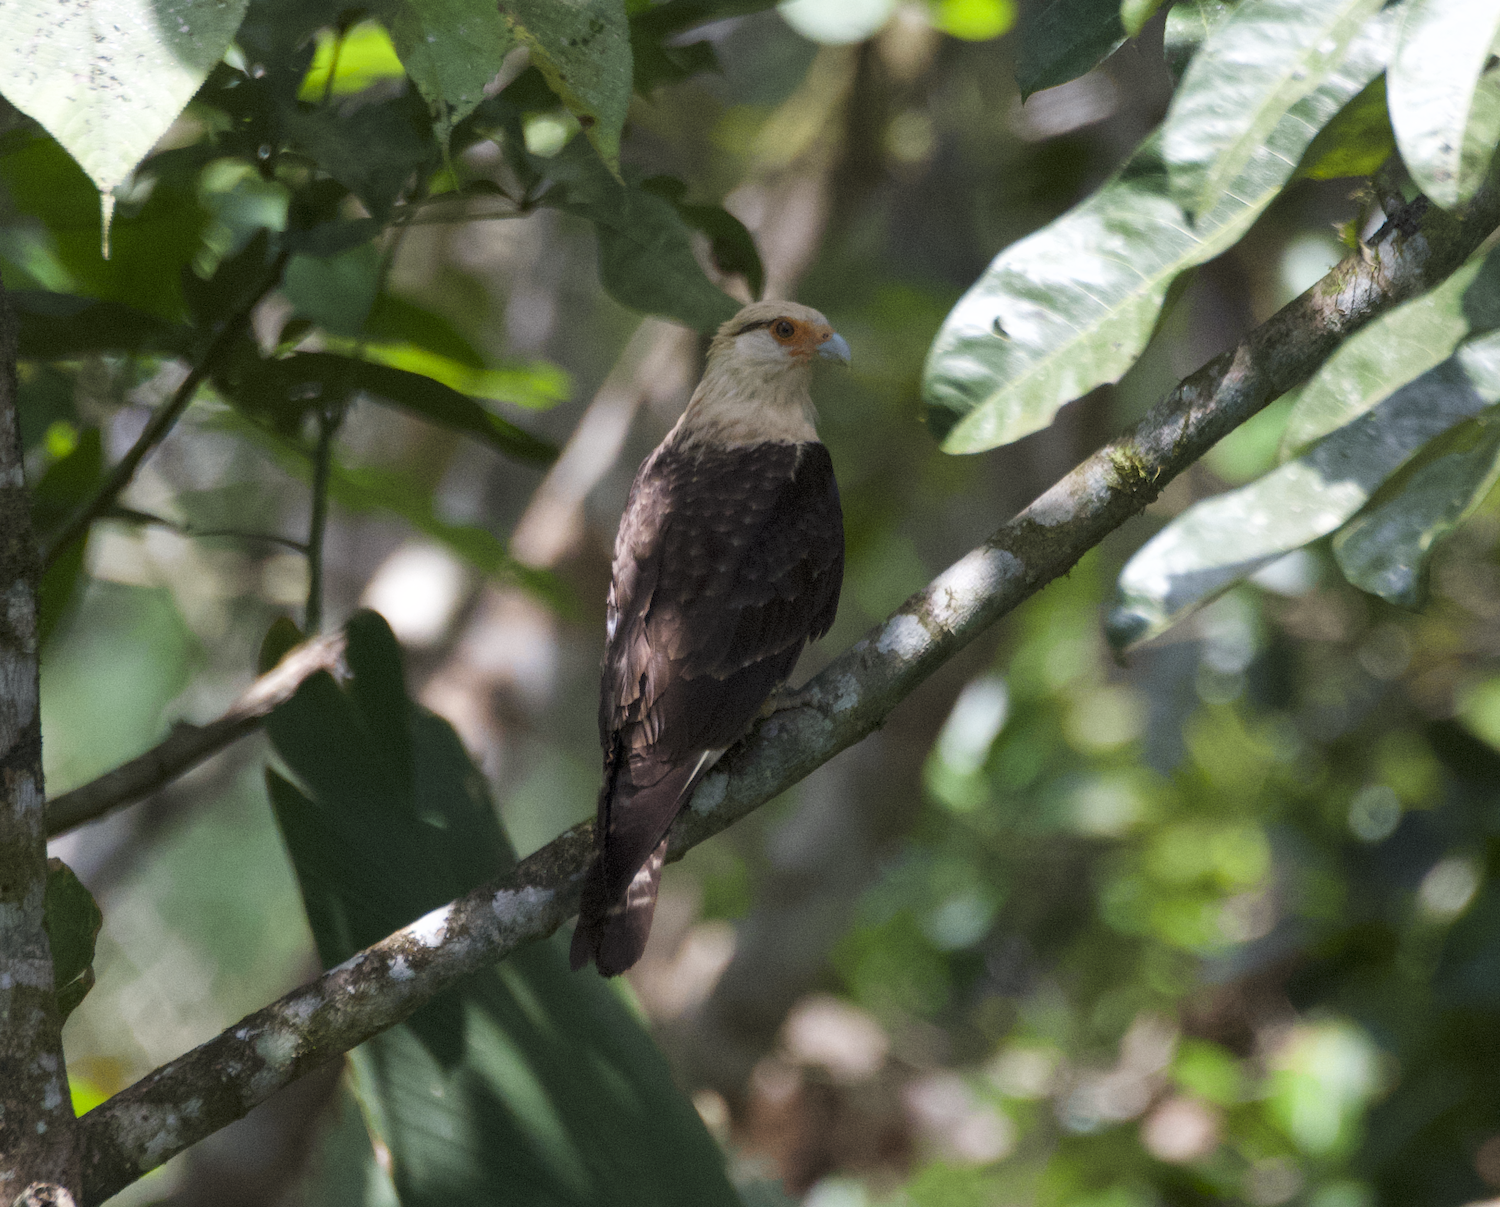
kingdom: Animalia
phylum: Chordata
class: Aves
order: Falconiformes
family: Falconidae
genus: Daptrius
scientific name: Daptrius
